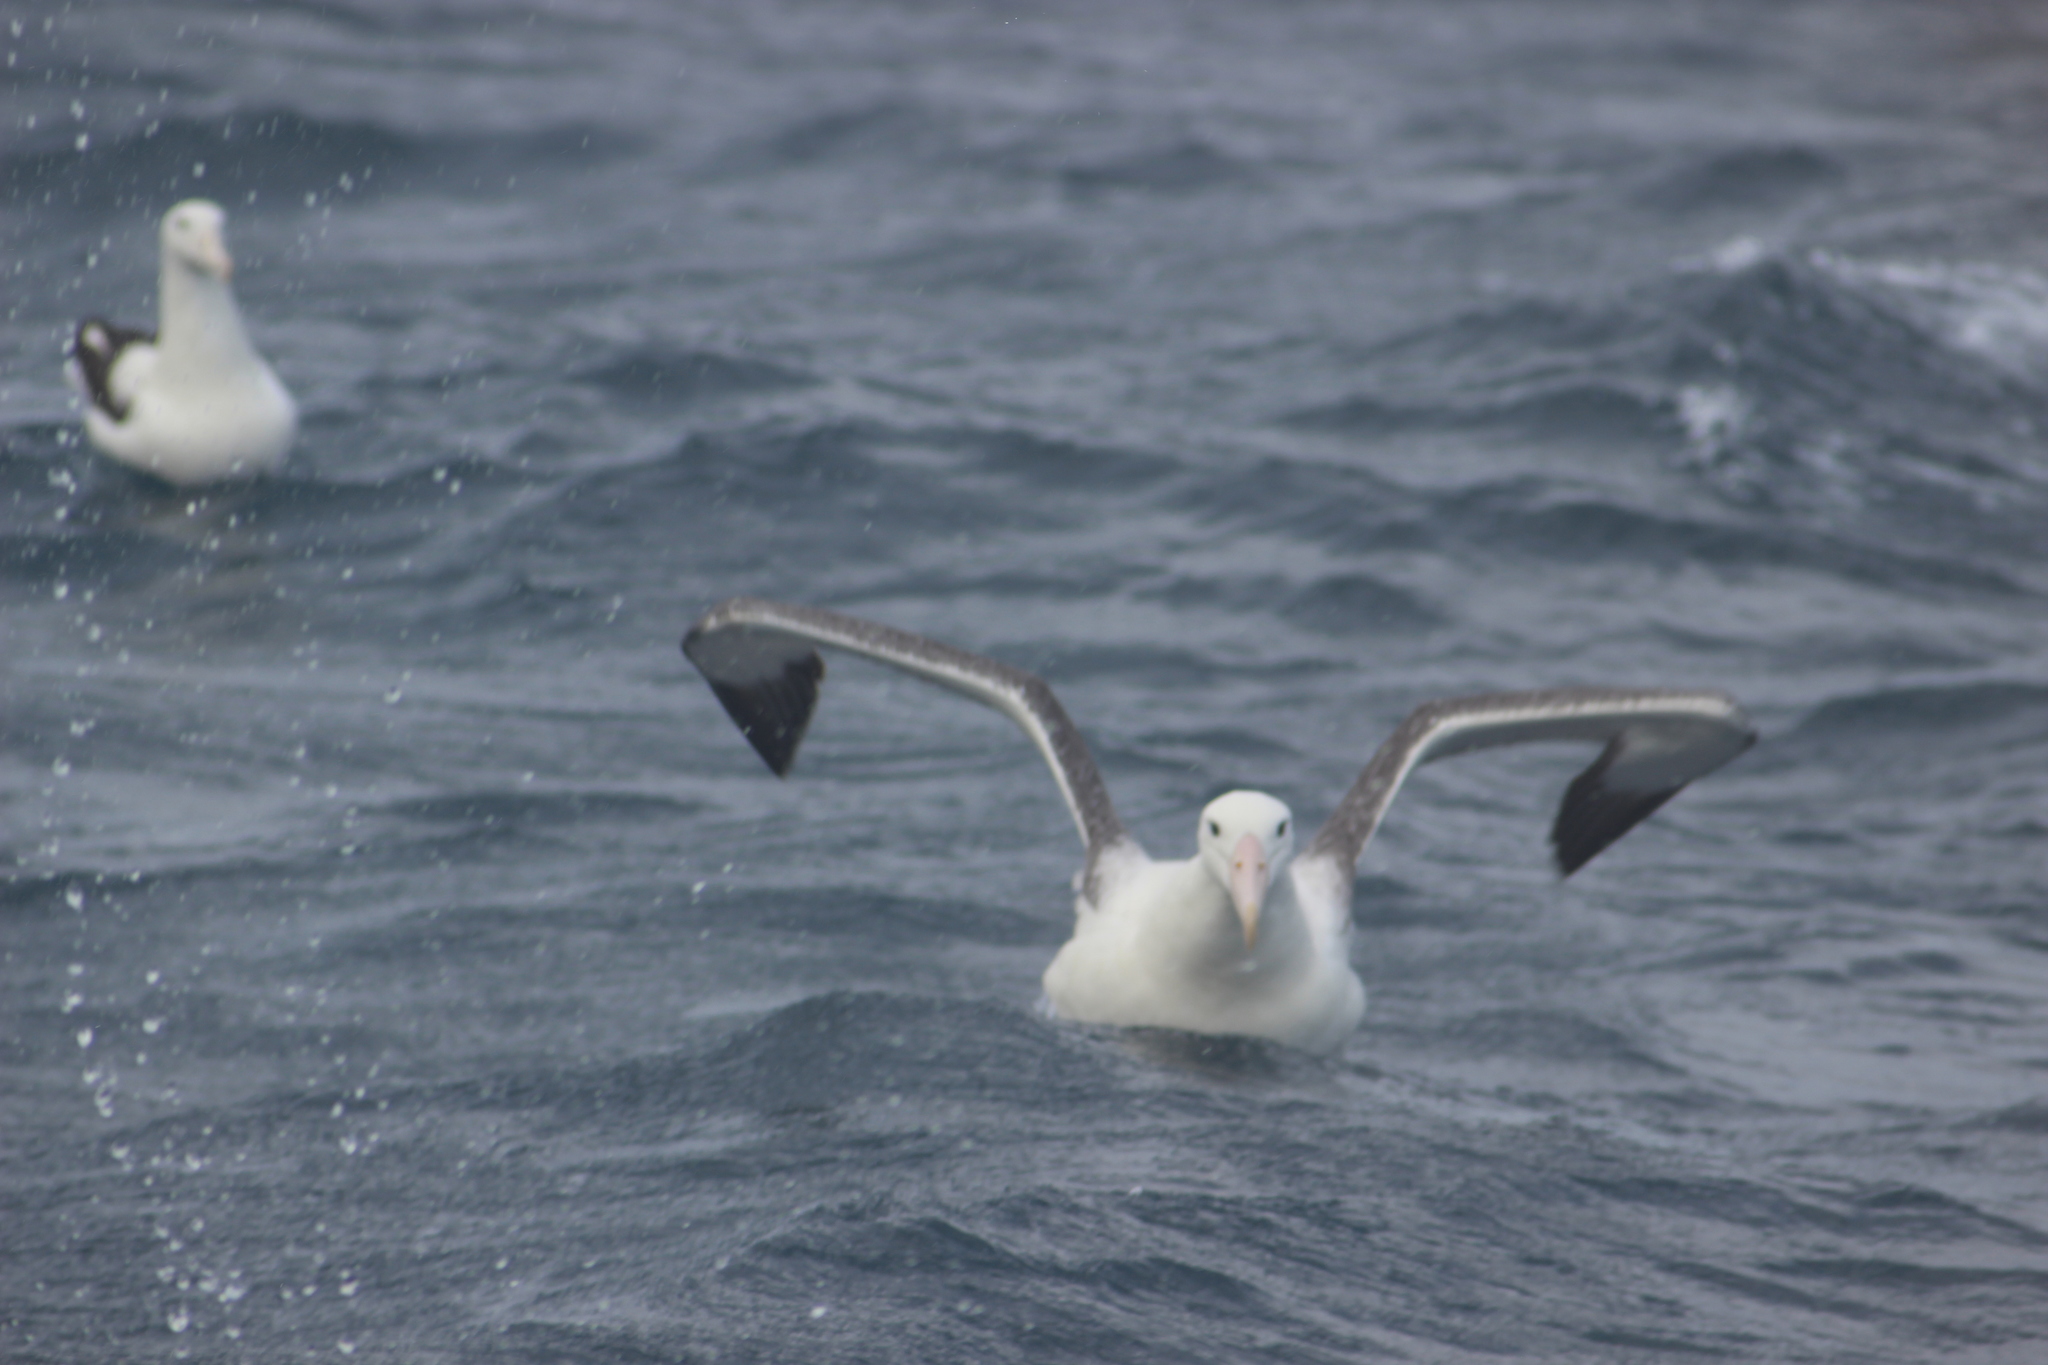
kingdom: Animalia
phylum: Chordata
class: Aves
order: Procellariiformes
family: Diomedeidae
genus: Diomedea
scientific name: Diomedea epomophora
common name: Southern royal albatross
